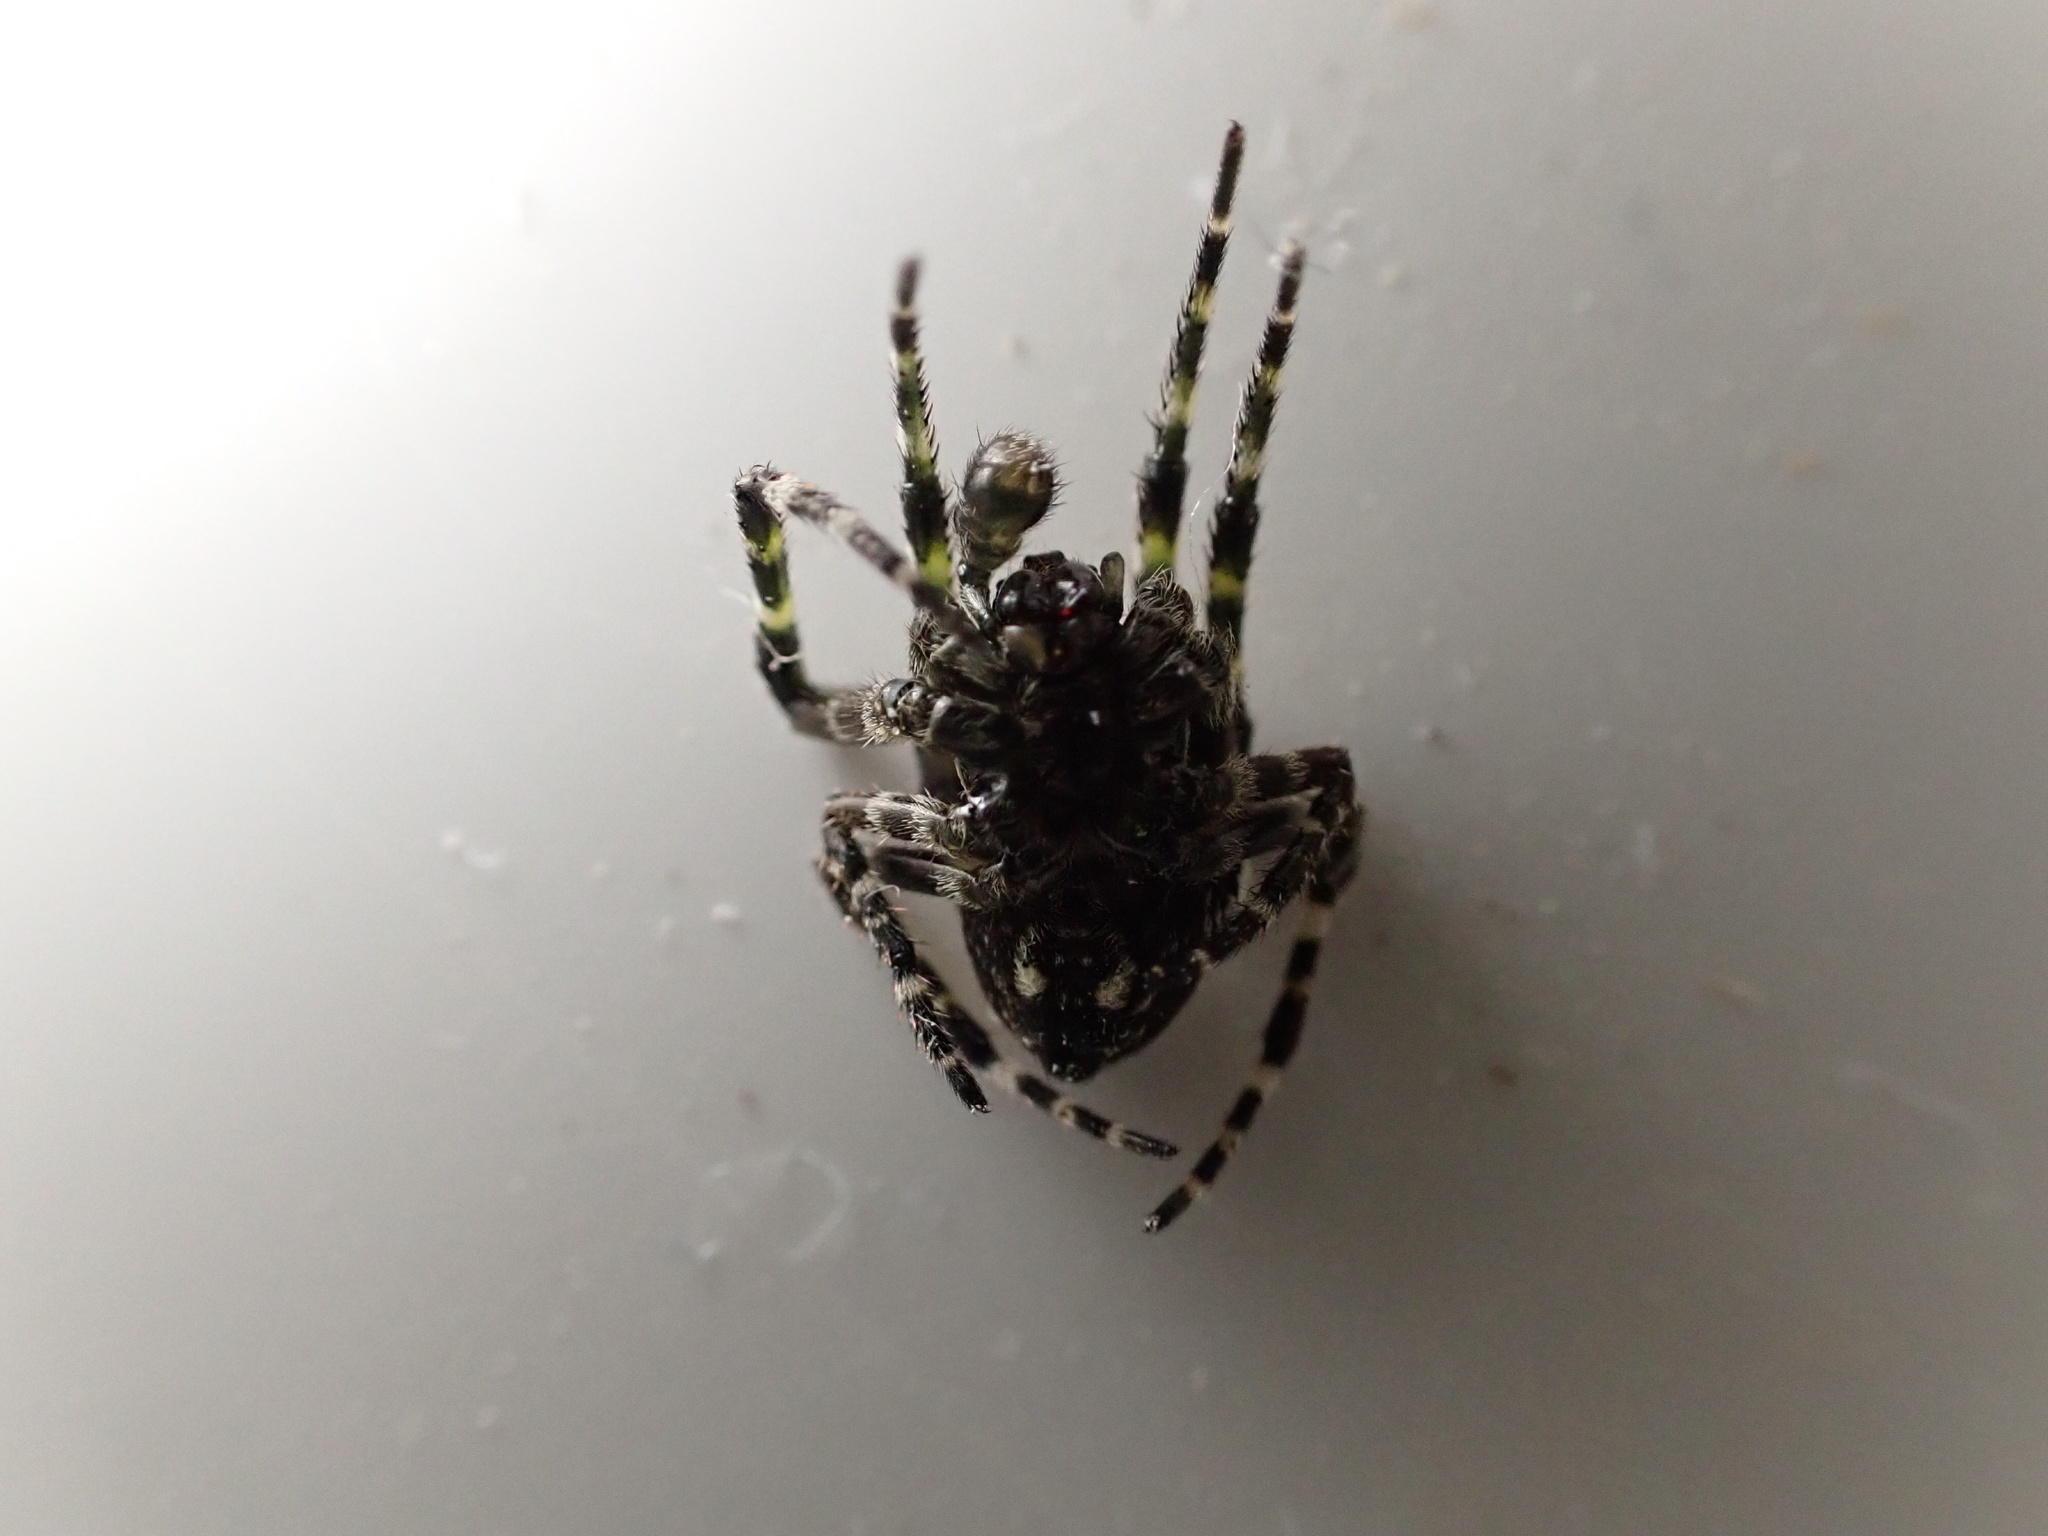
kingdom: Animalia
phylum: Arthropoda
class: Arachnida
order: Araneae
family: Araneidae
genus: Courtaraneus
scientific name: Courtaraneus orientalis
